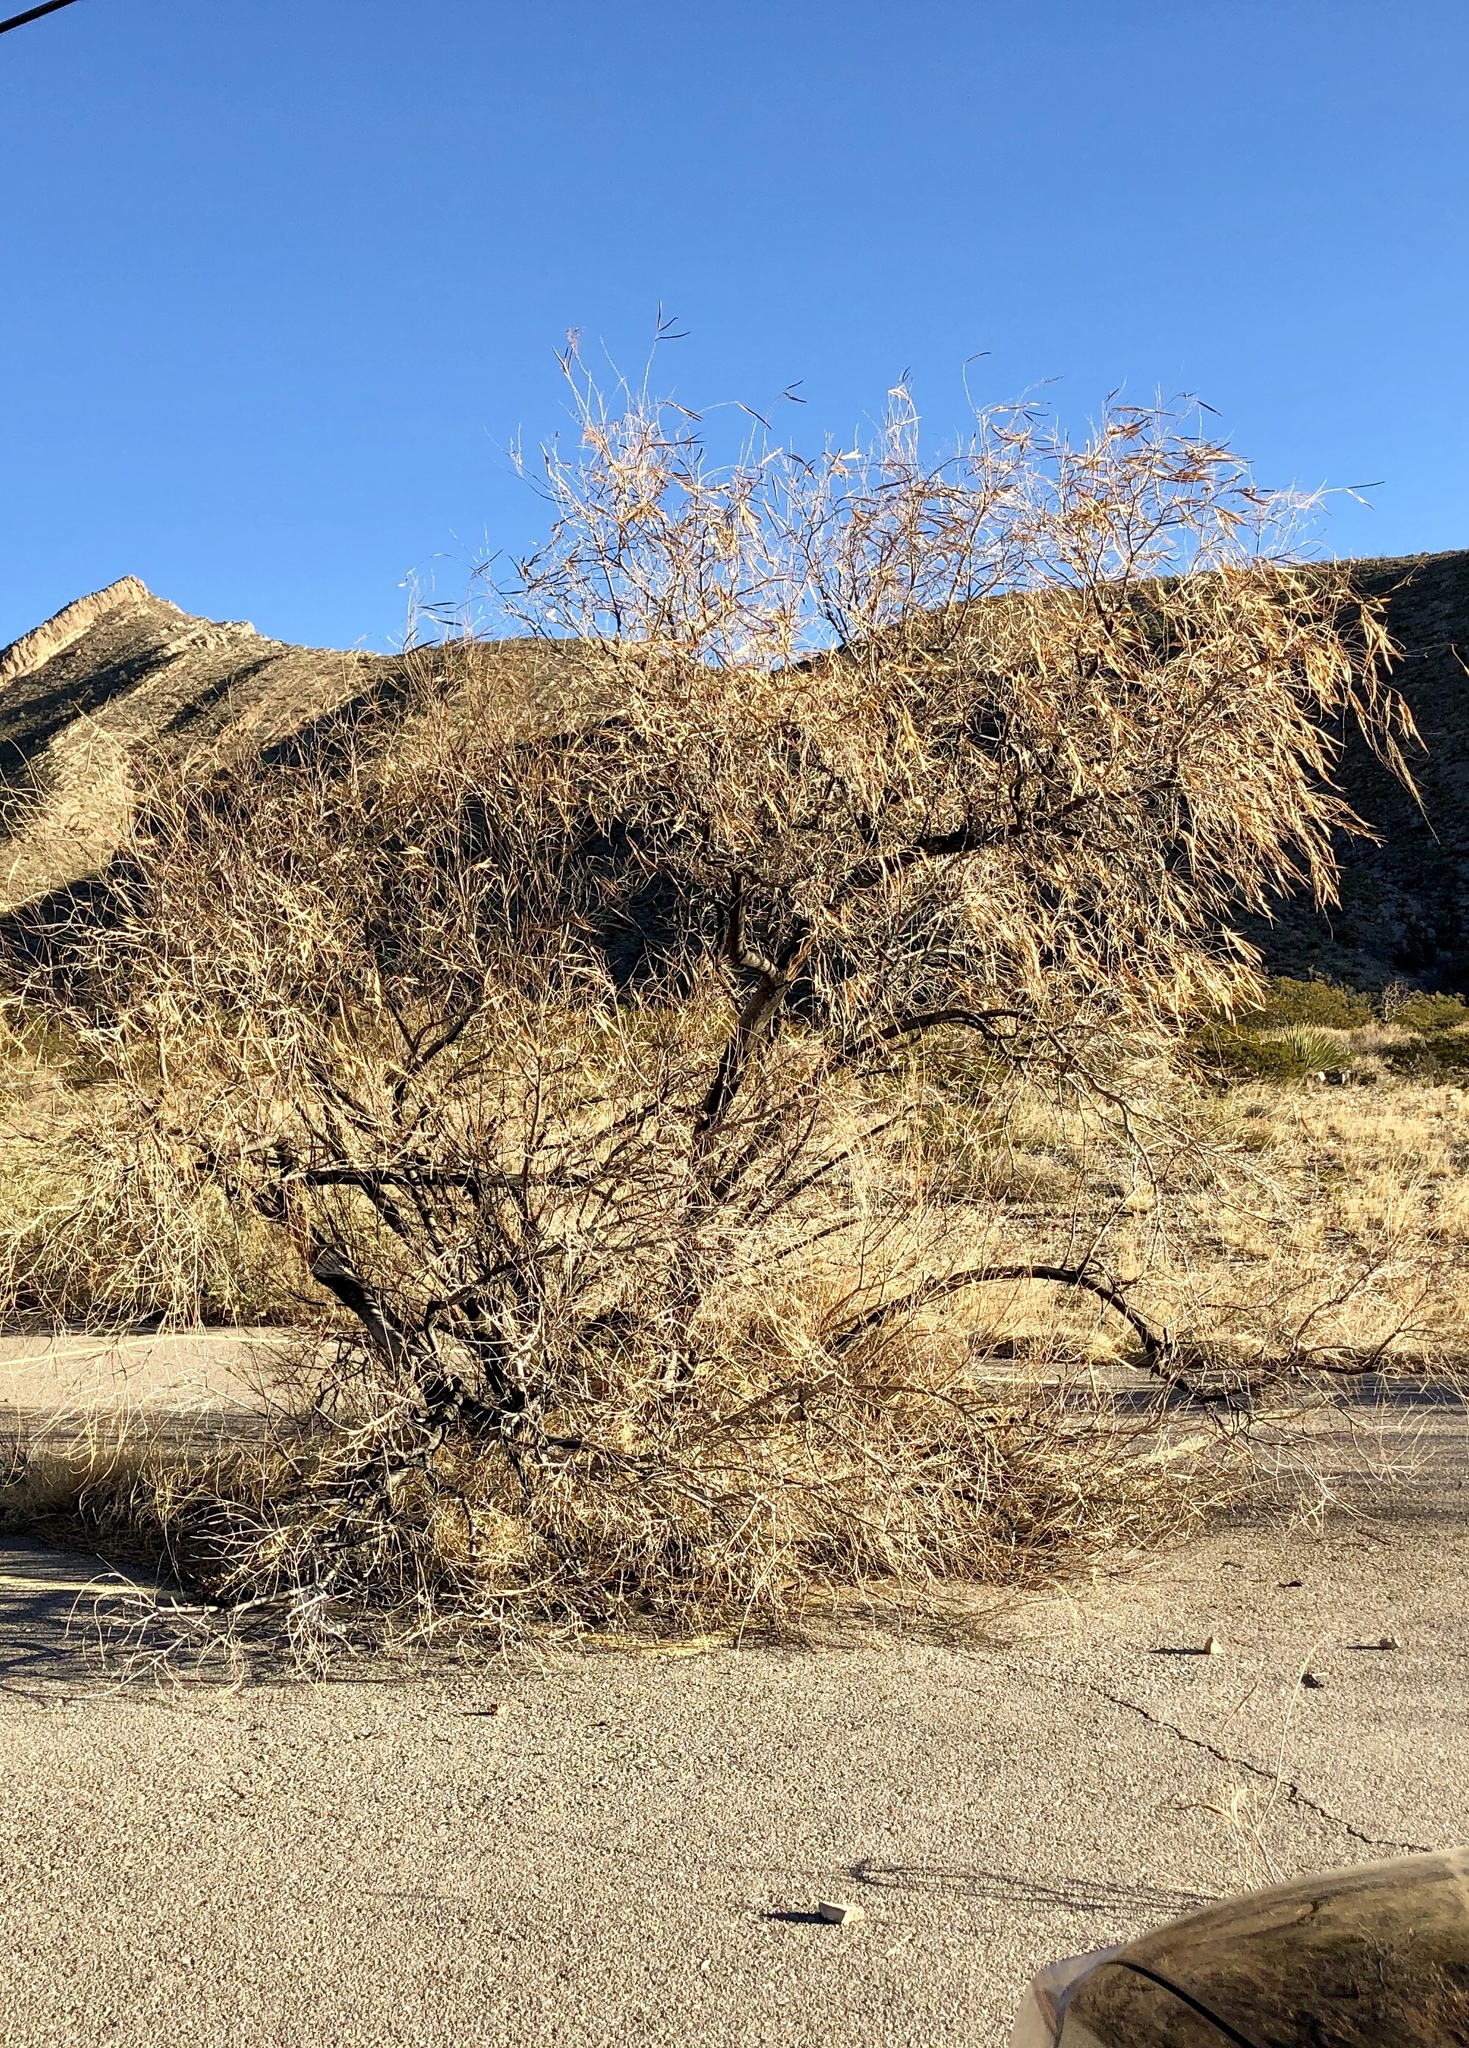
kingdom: Plantae
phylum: Tracheophyta
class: Magnoliopsida
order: Lamiales
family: Bignoniaceae
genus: Chilopsis
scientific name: Chilopsis linearis
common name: Desert-willow
